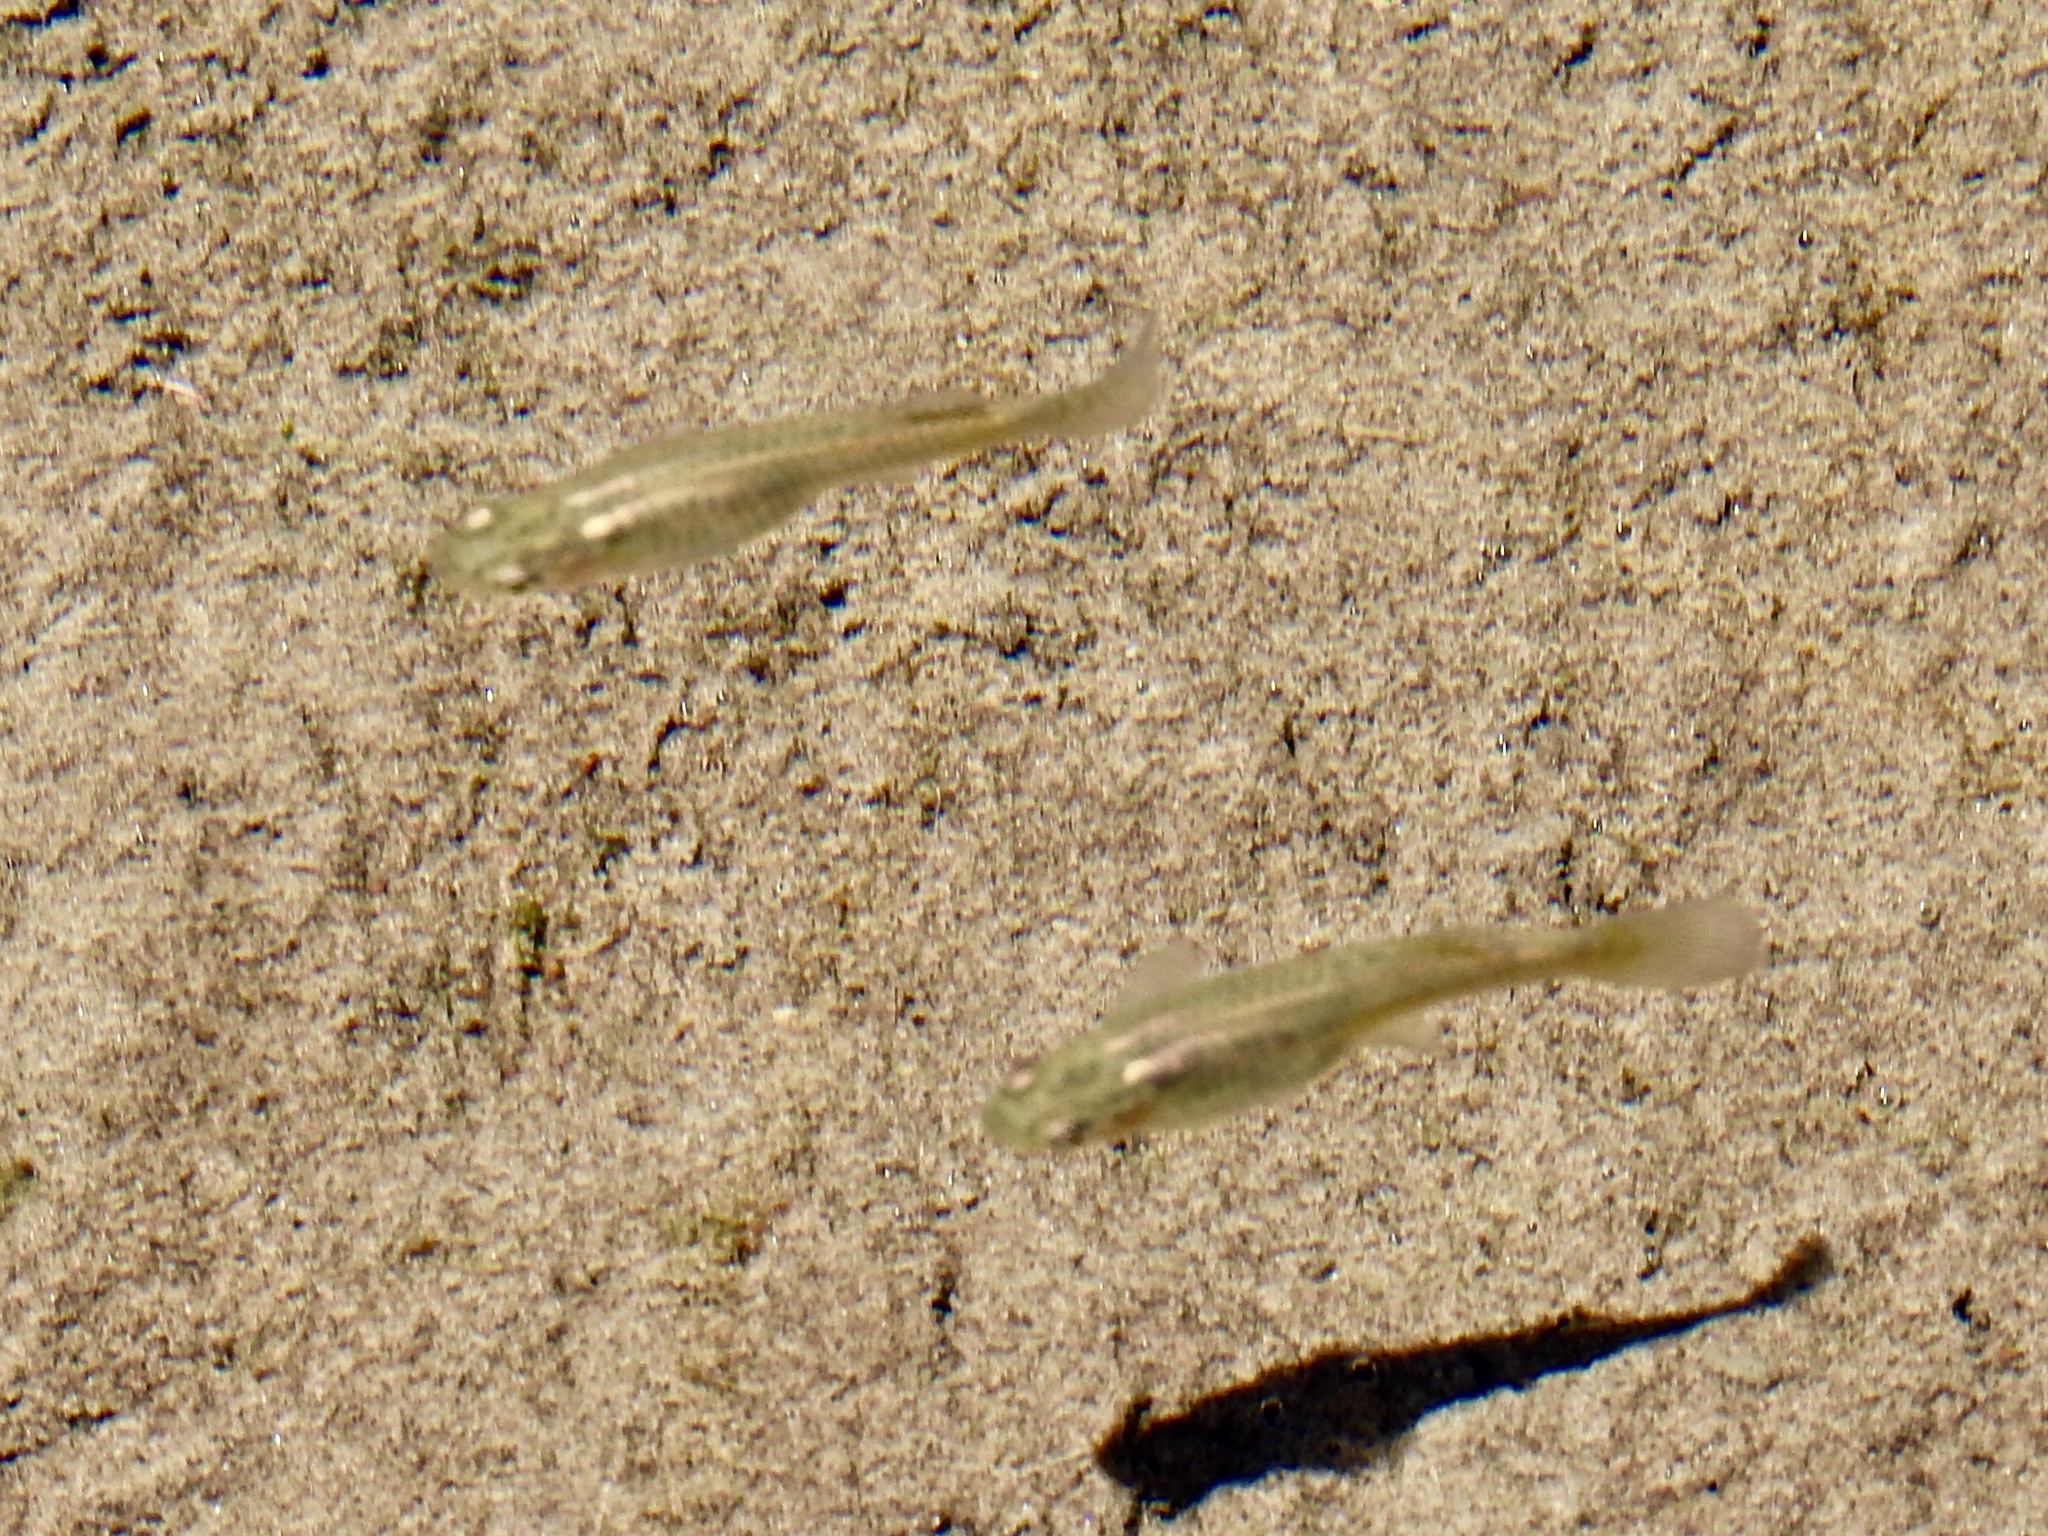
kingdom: Animalia
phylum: Chordata
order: Cyprinodontiformes
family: Poeciliidae
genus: Gambusia
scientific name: Gambusia affinis
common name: Mosquitofish
